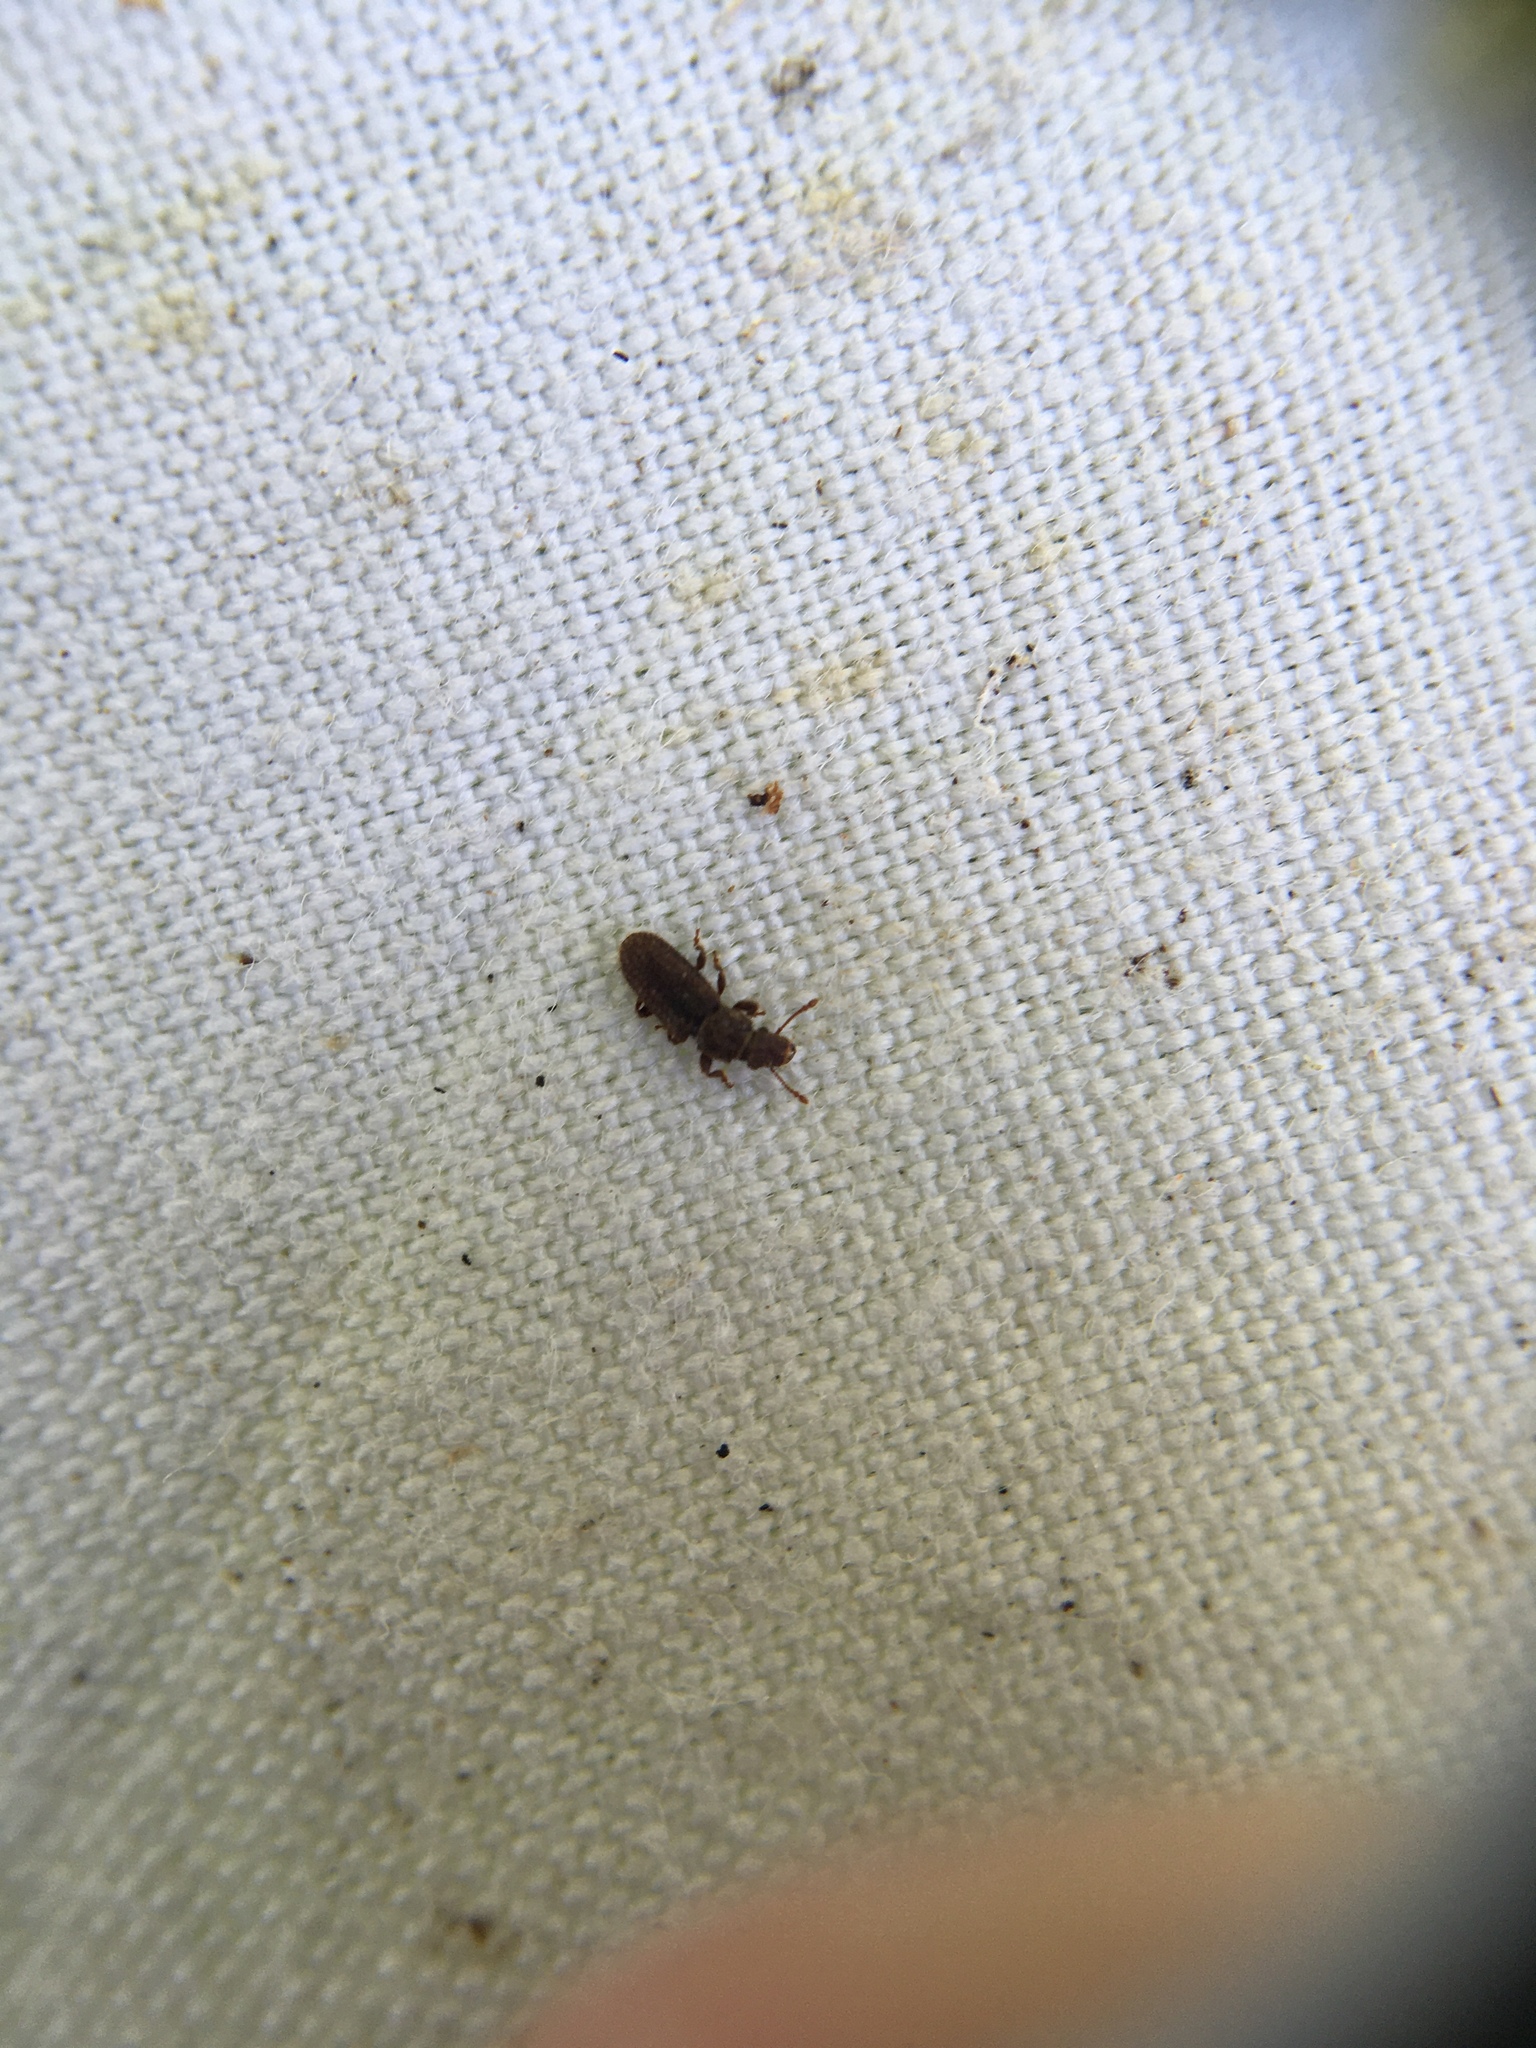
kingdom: Animalia
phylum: Arthropoda
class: Insecta
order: Coleoptera
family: Belidae
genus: Aralius
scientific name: Aralius wollastoni
